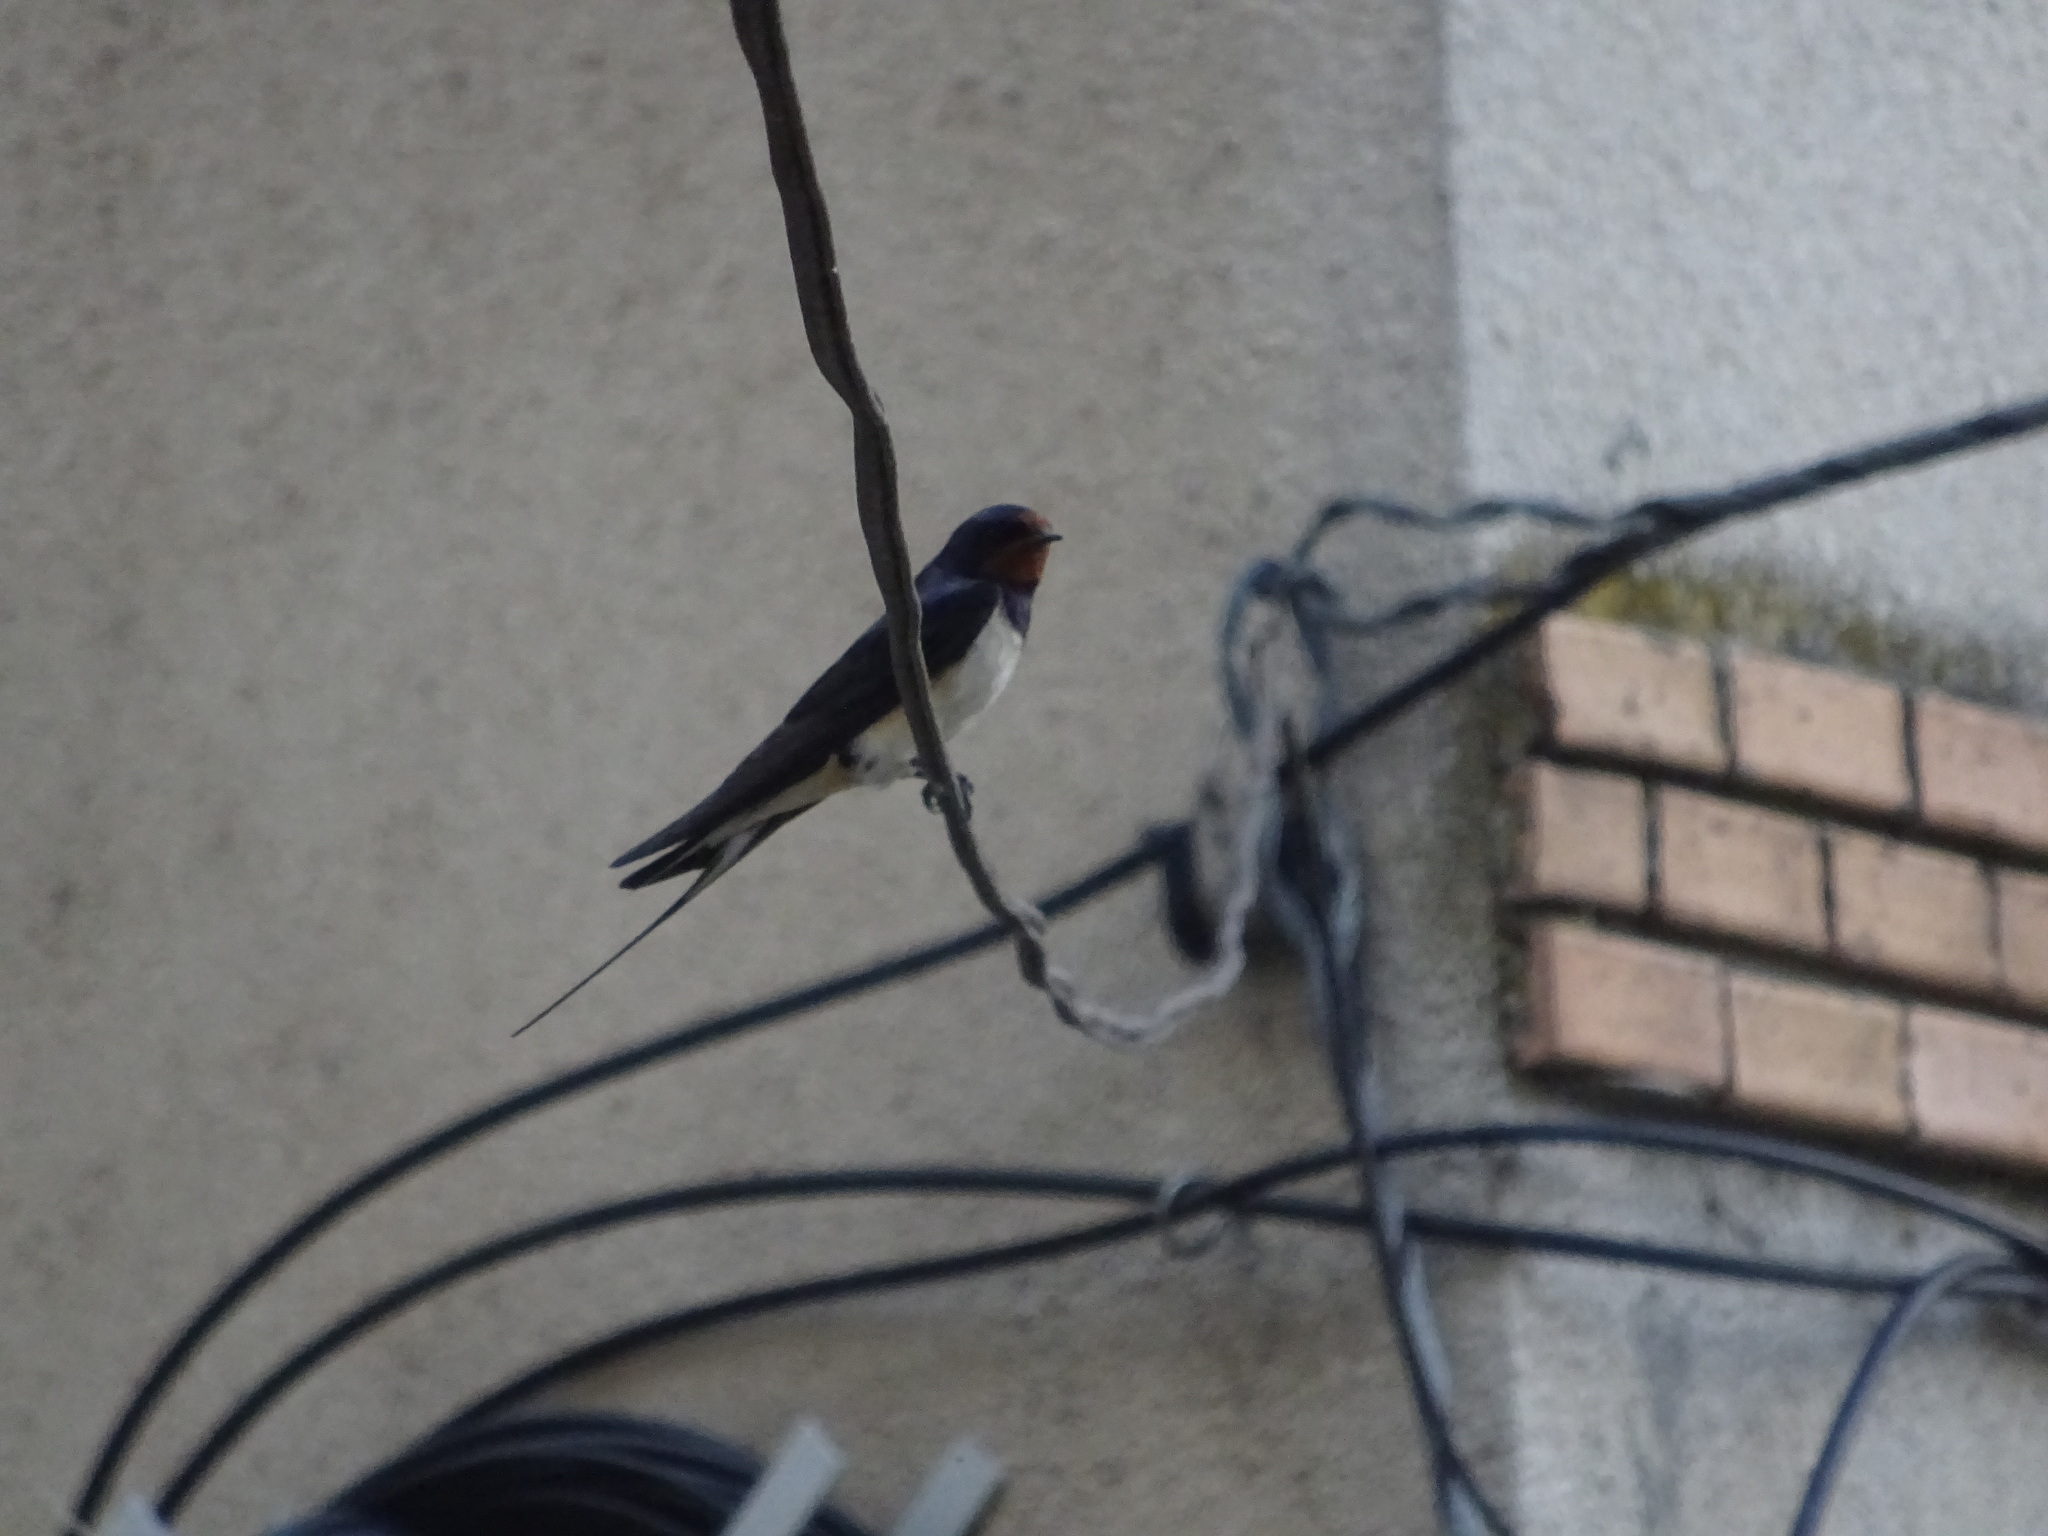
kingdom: Animalia
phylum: Chordata
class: Aves
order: Passeriformes
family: Hirundinidae
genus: Hirundo
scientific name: Hirundo rustica
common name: Barn swallow
